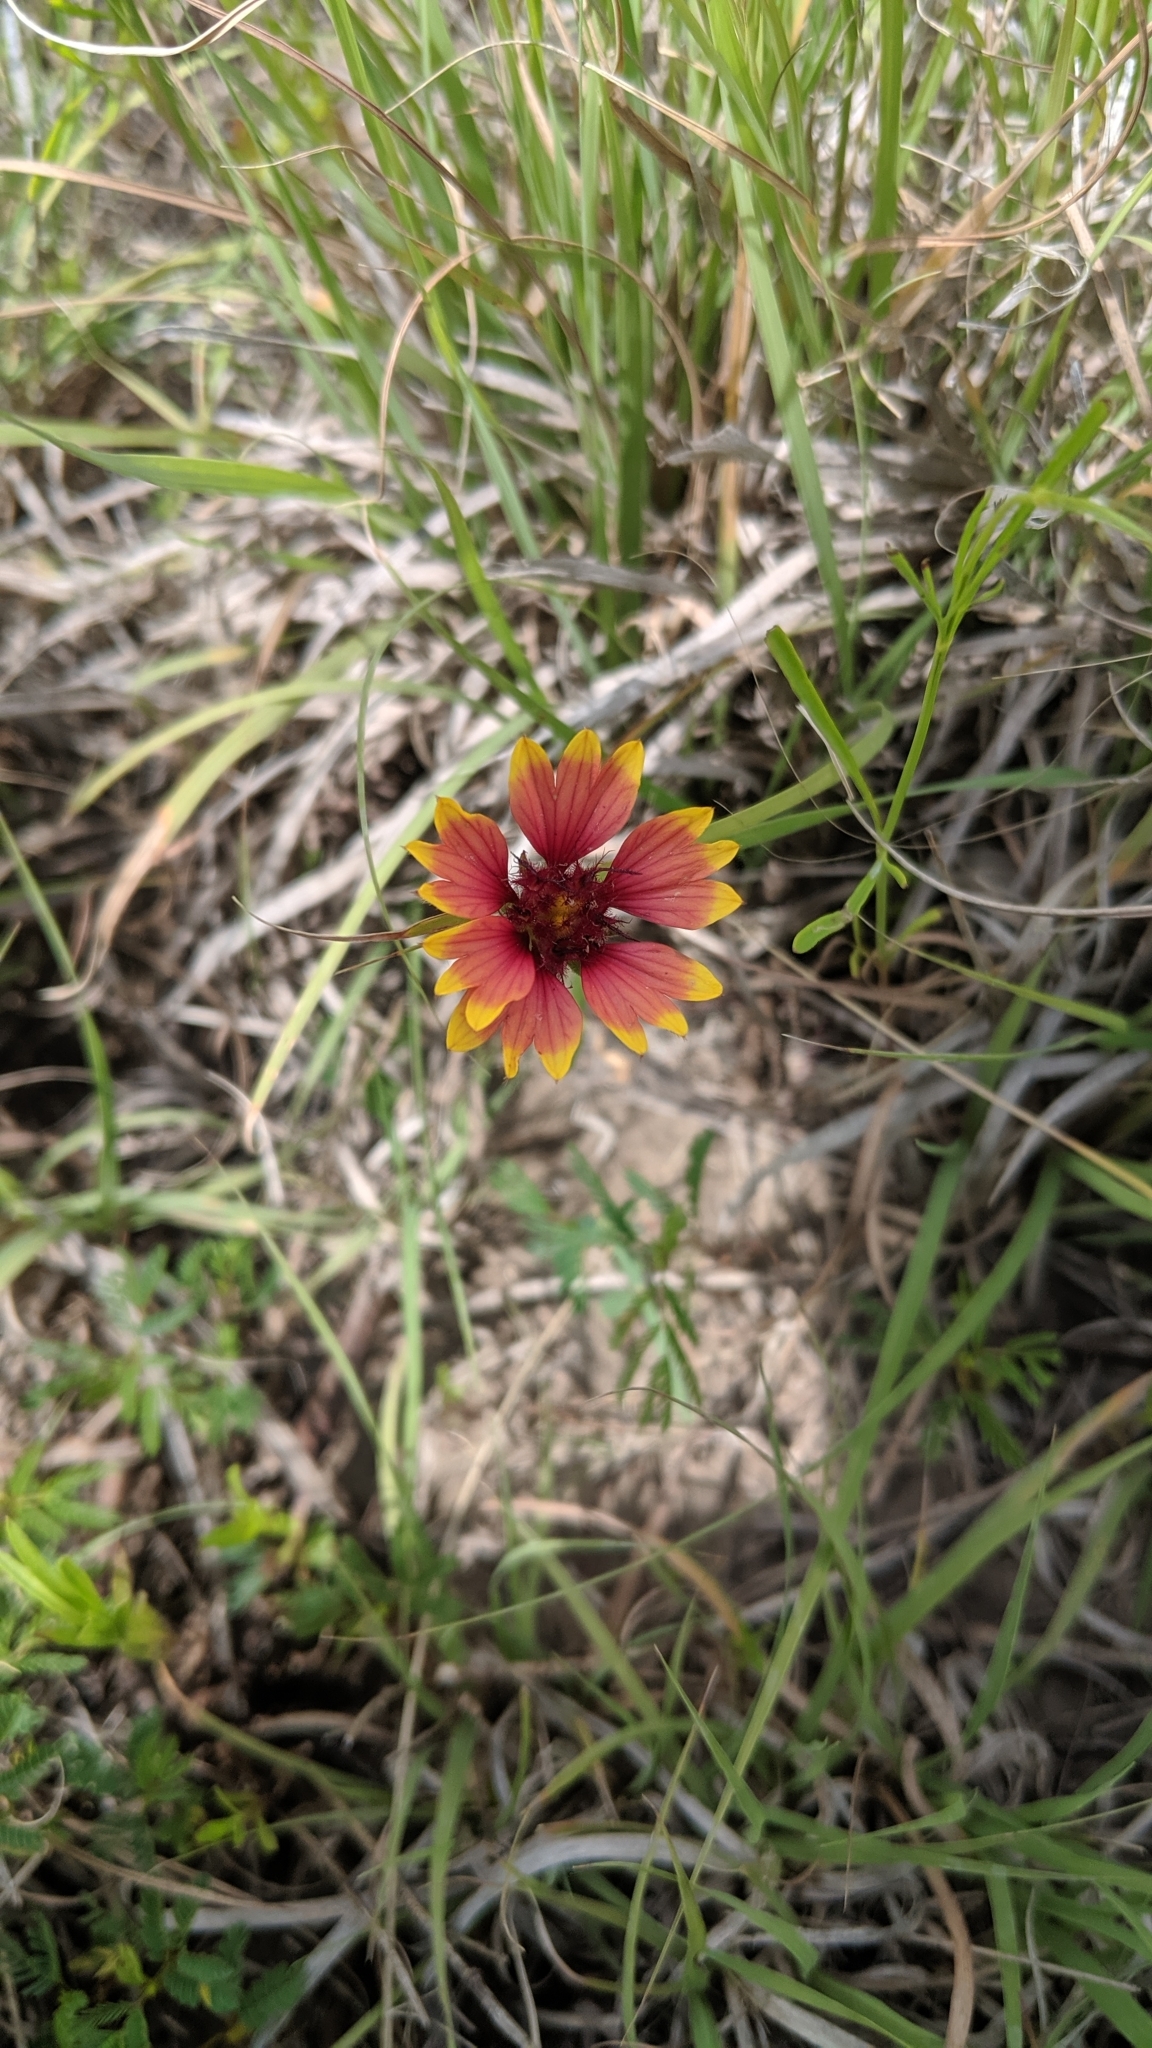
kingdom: Plantae
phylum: Tracheophyta
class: Magnoliopsida
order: Asterales
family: Asteraceae
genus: Gaillardia
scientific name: Gaillardia pulchella
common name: Firewheel
